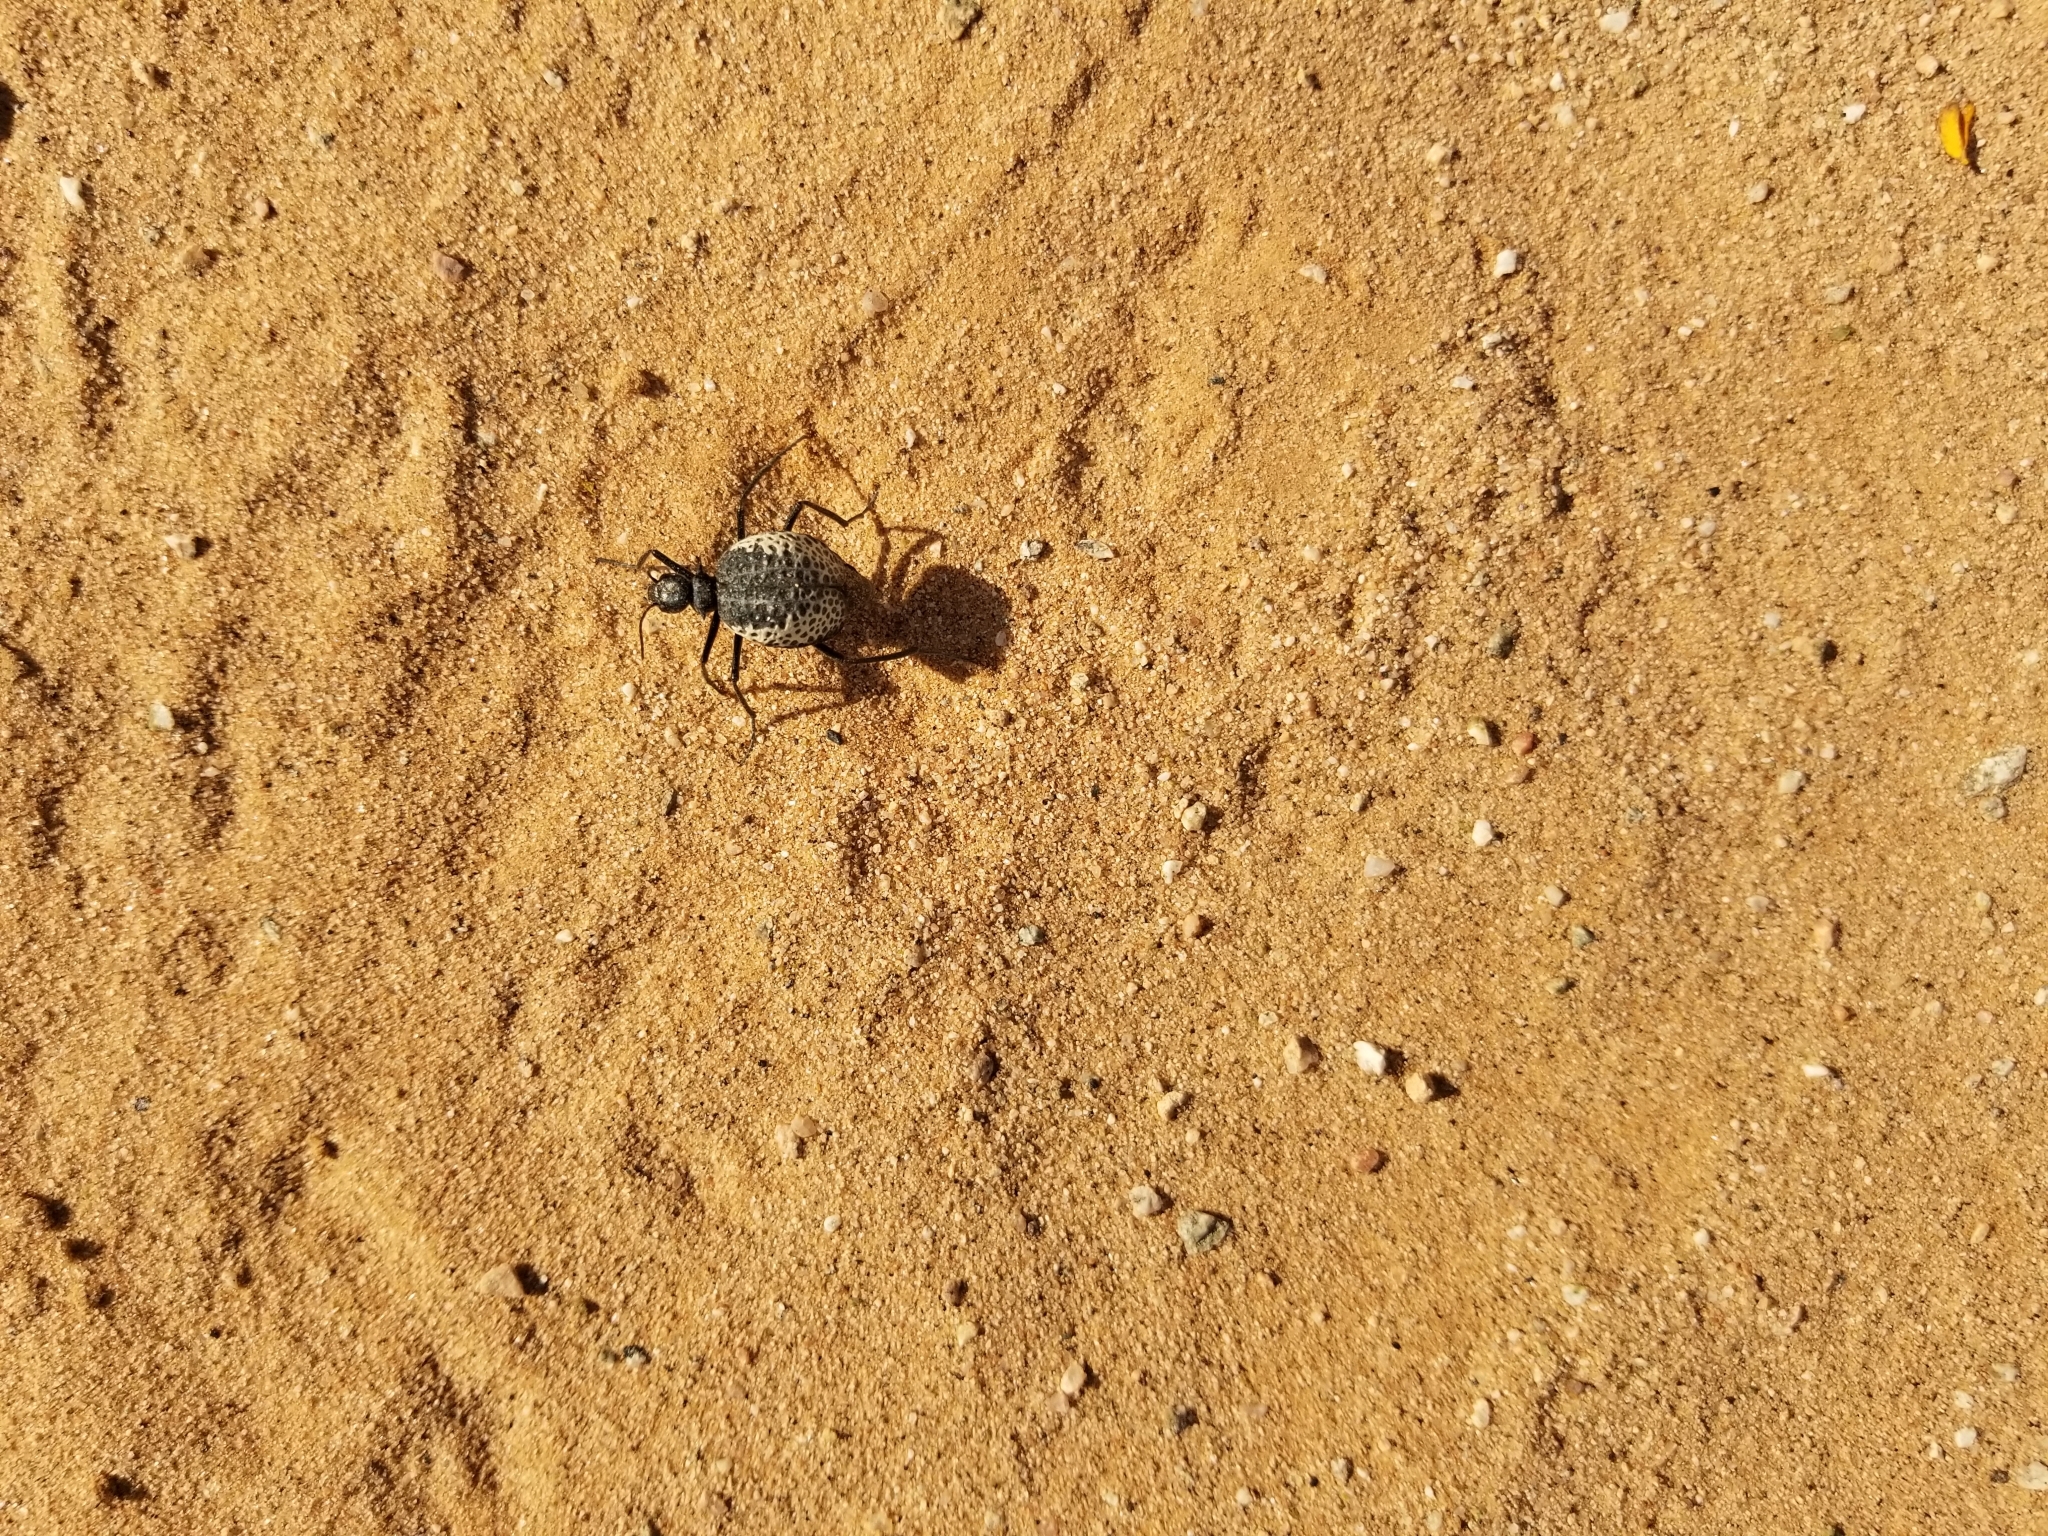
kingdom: Animalia
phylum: Arthropoda
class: Insecta
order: Coleoptera
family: Meloidae
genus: Cysteodemus
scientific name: Cysteodemus armatus
